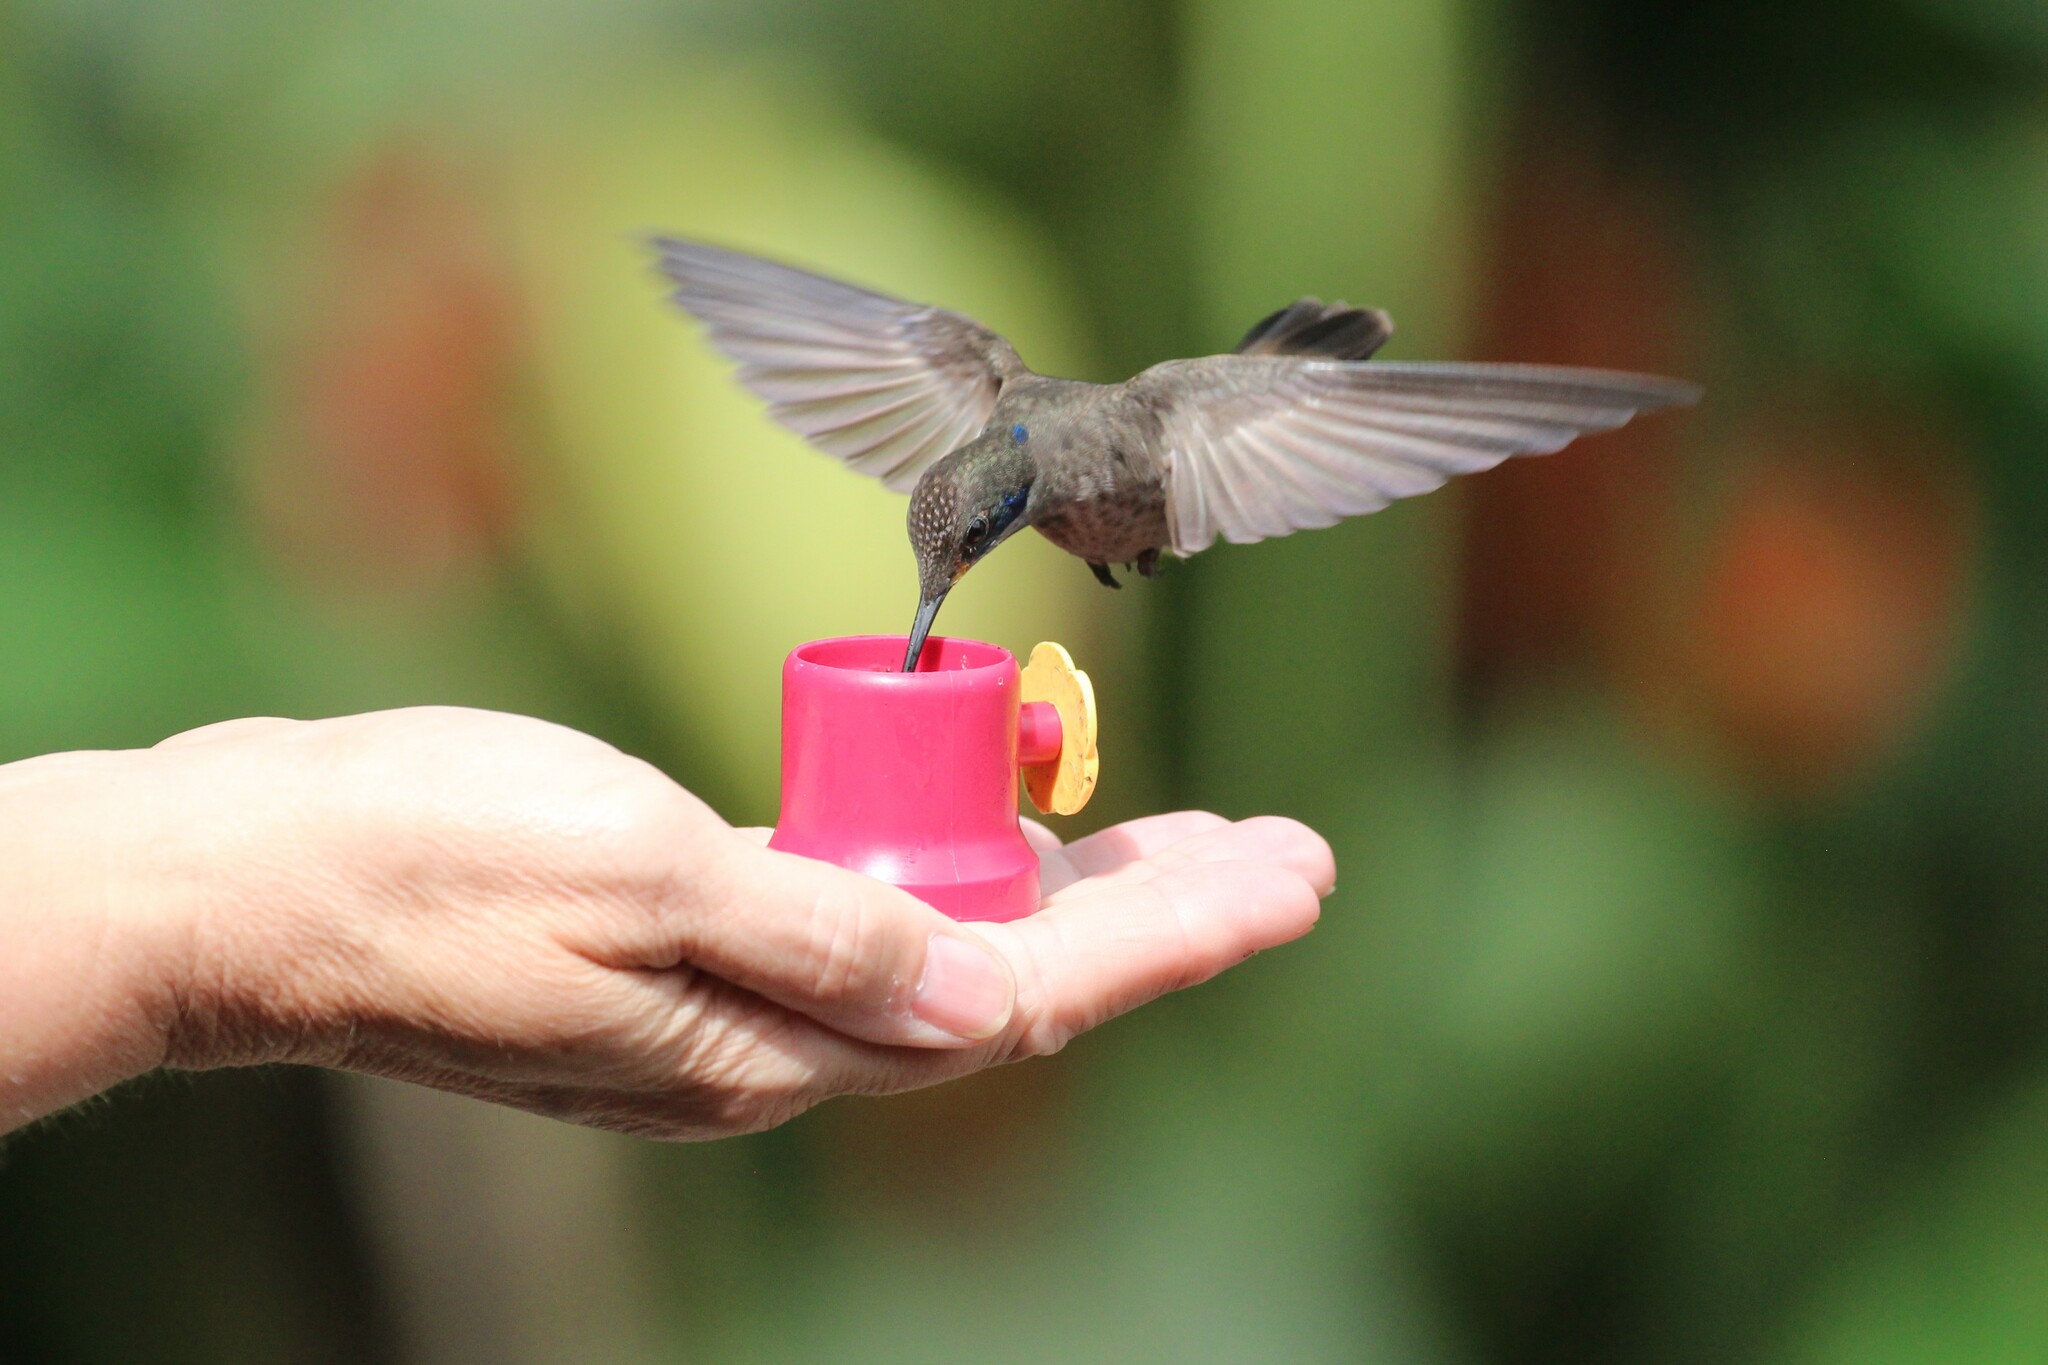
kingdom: Animalia
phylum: Chordata
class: Aves
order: Apodiformes
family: Trochilidae
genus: Colibri
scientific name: Colibri delphinae
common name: Brown violetear
